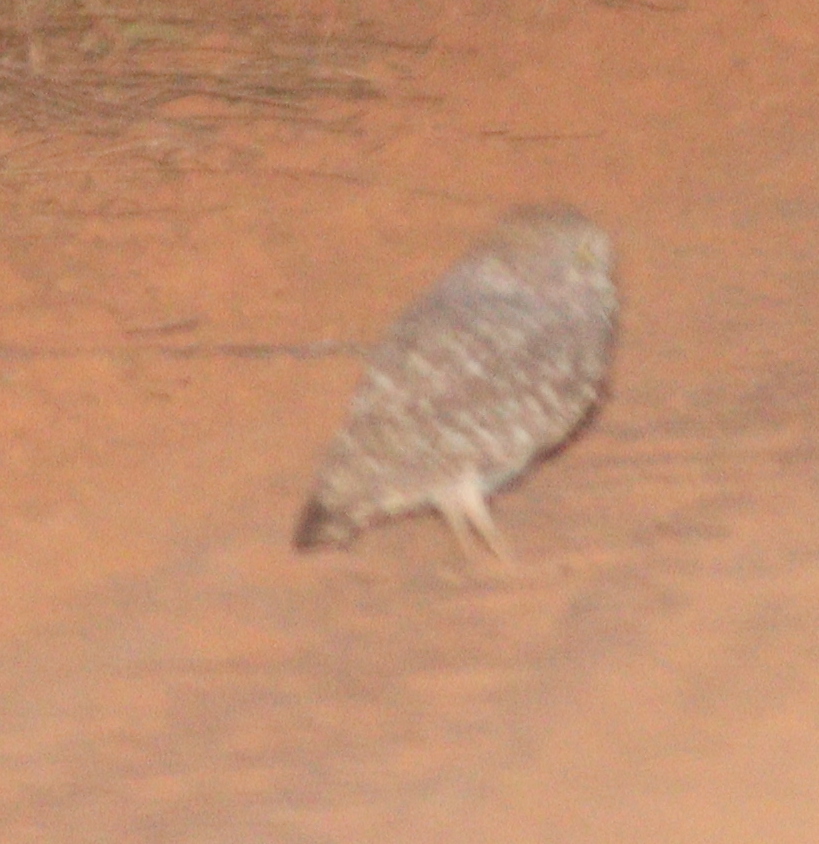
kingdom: Animalia
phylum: Chordata
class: Aves
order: Strigiformes
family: Strigidae
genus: Athene
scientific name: Athene cunicularia
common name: Burrowing owl
